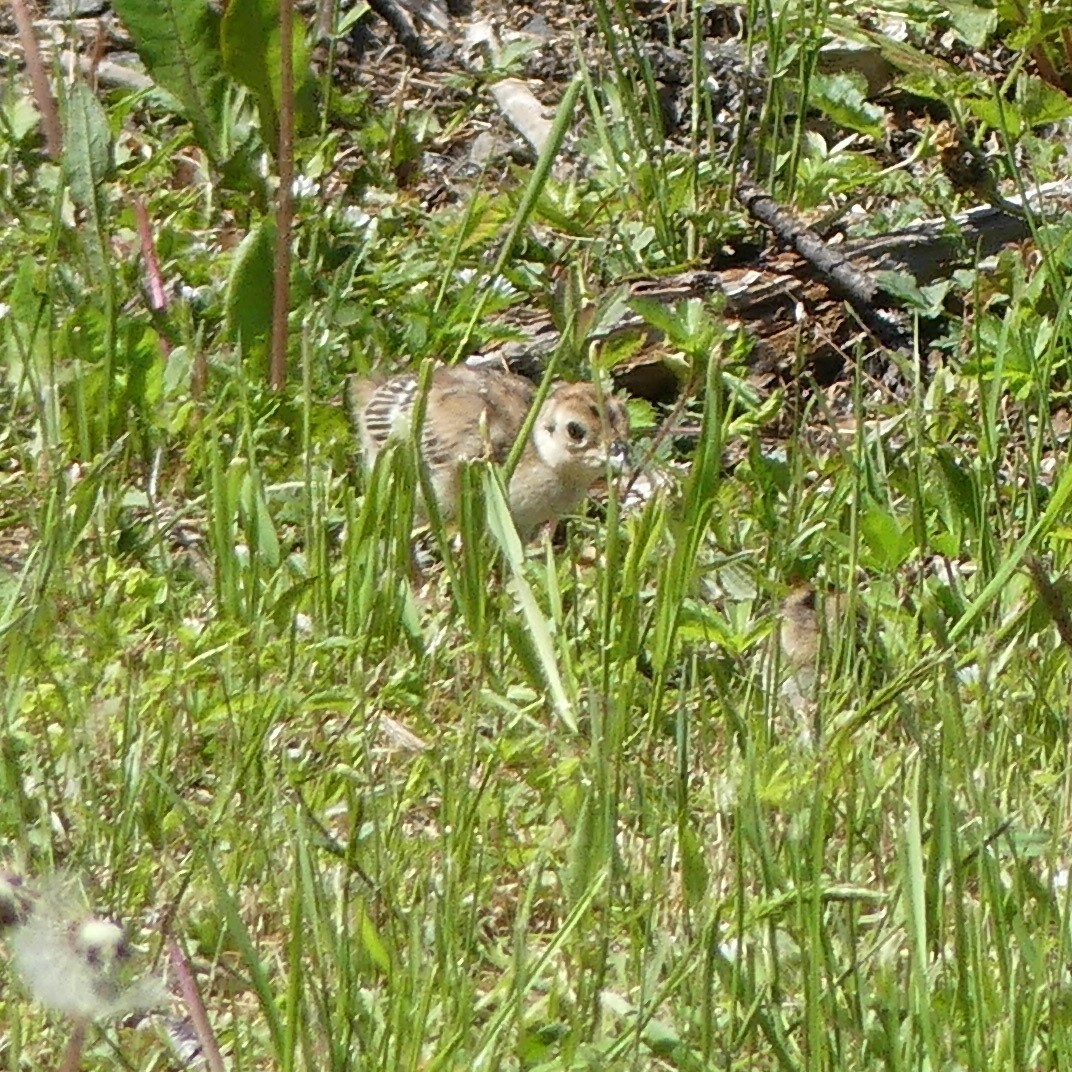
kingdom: Animalia
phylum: Chordata
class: Aves
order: Galliformes
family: Phasianidae
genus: Phasianus
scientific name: Phasianus colchicus
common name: Common pheasant
